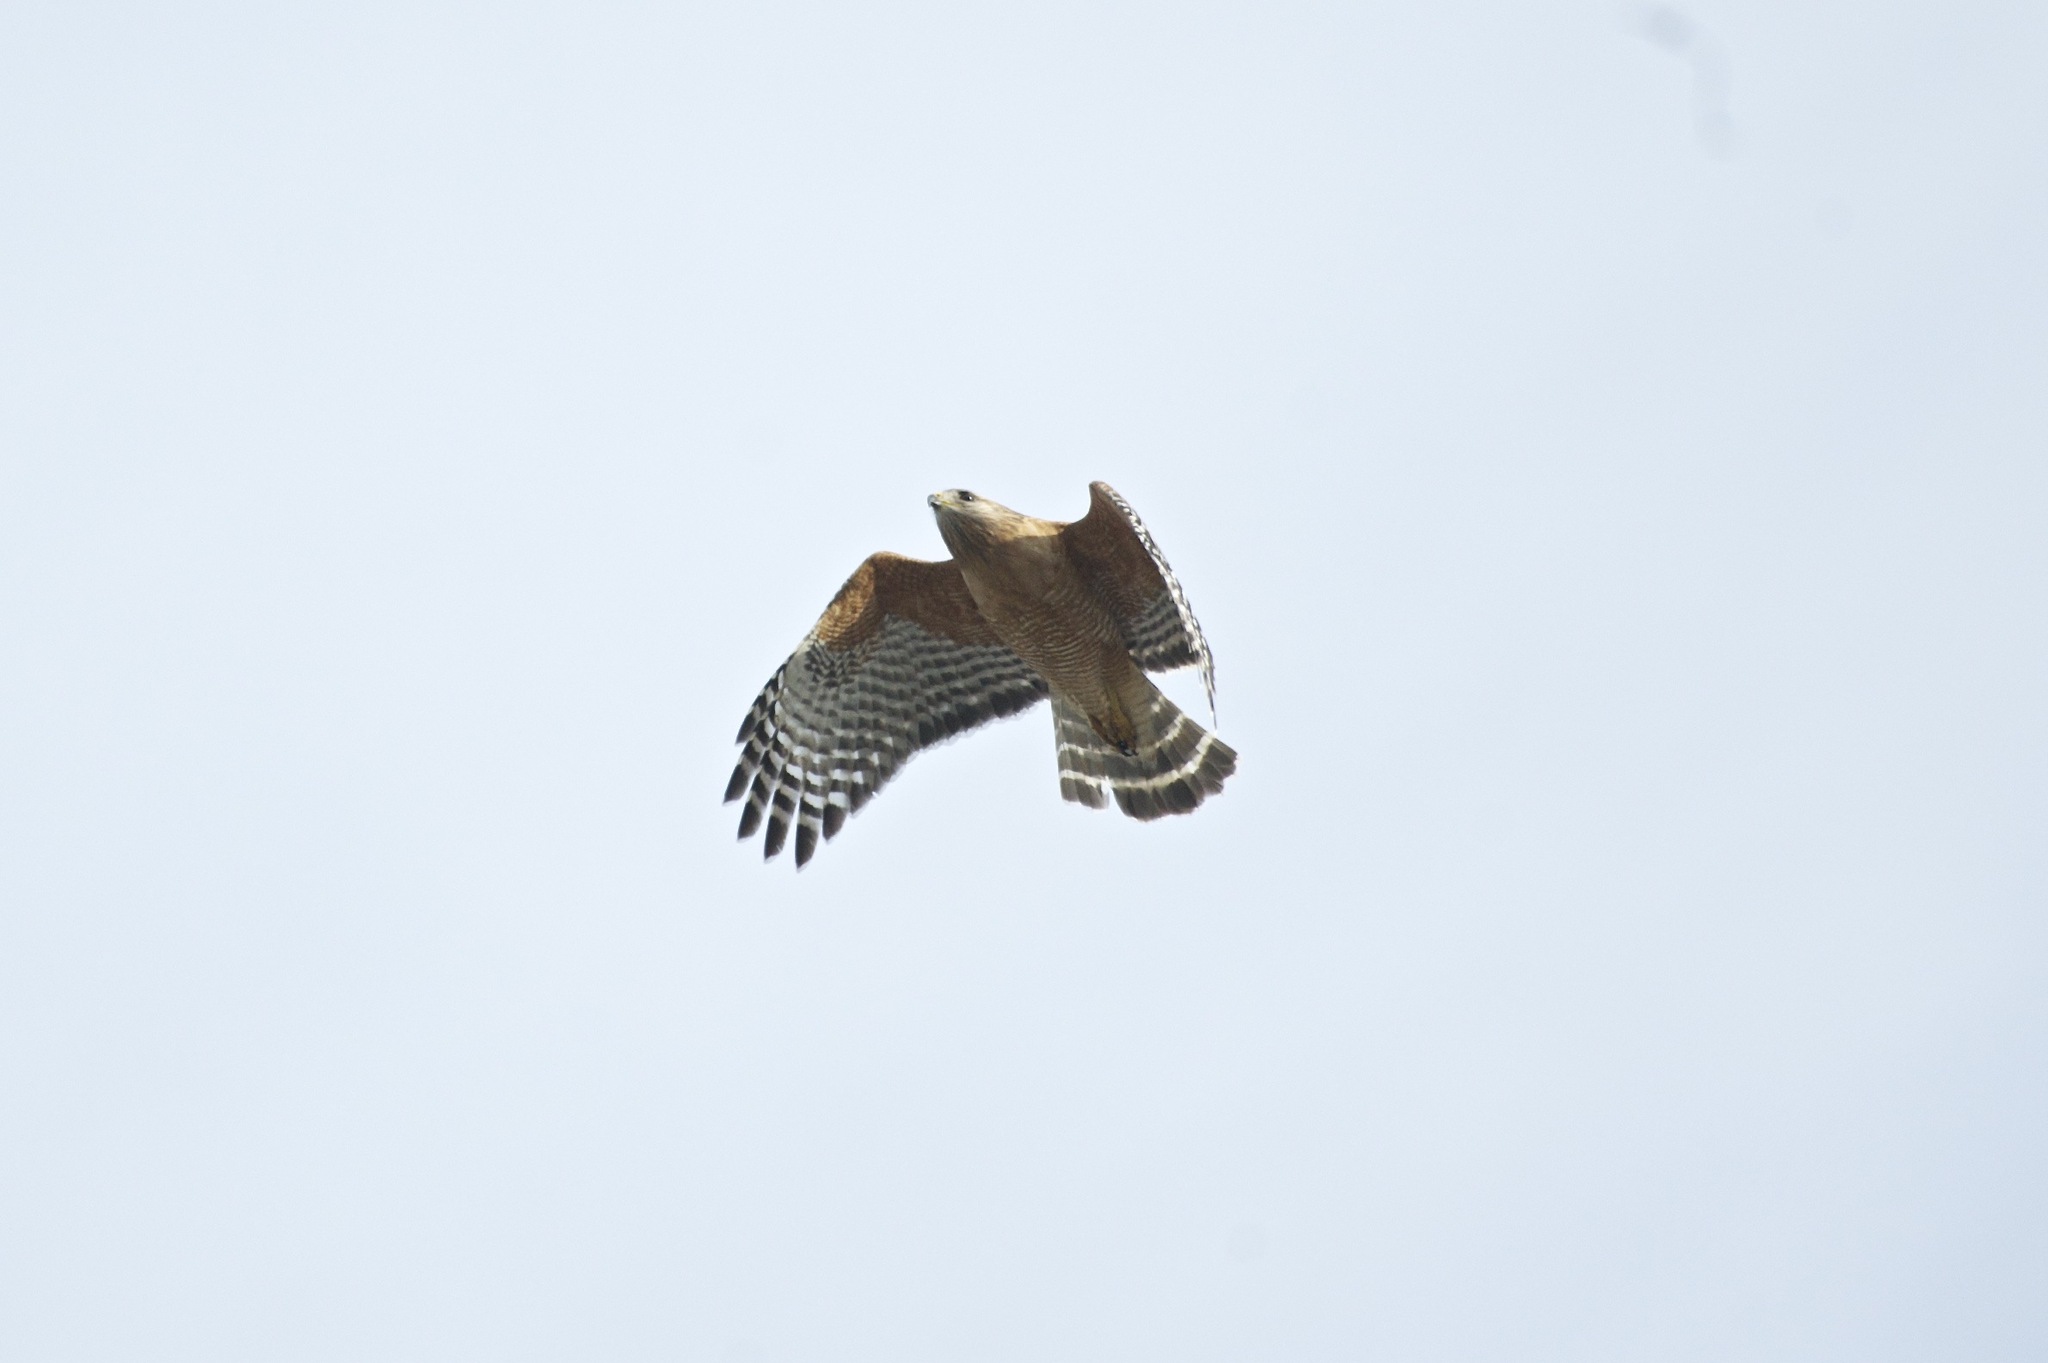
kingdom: Animalia
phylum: Chordata
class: Aves
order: Accipitriformes
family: Accipitridae
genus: Buteo
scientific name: Buteo lineatus
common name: Red-shouldered hawk
